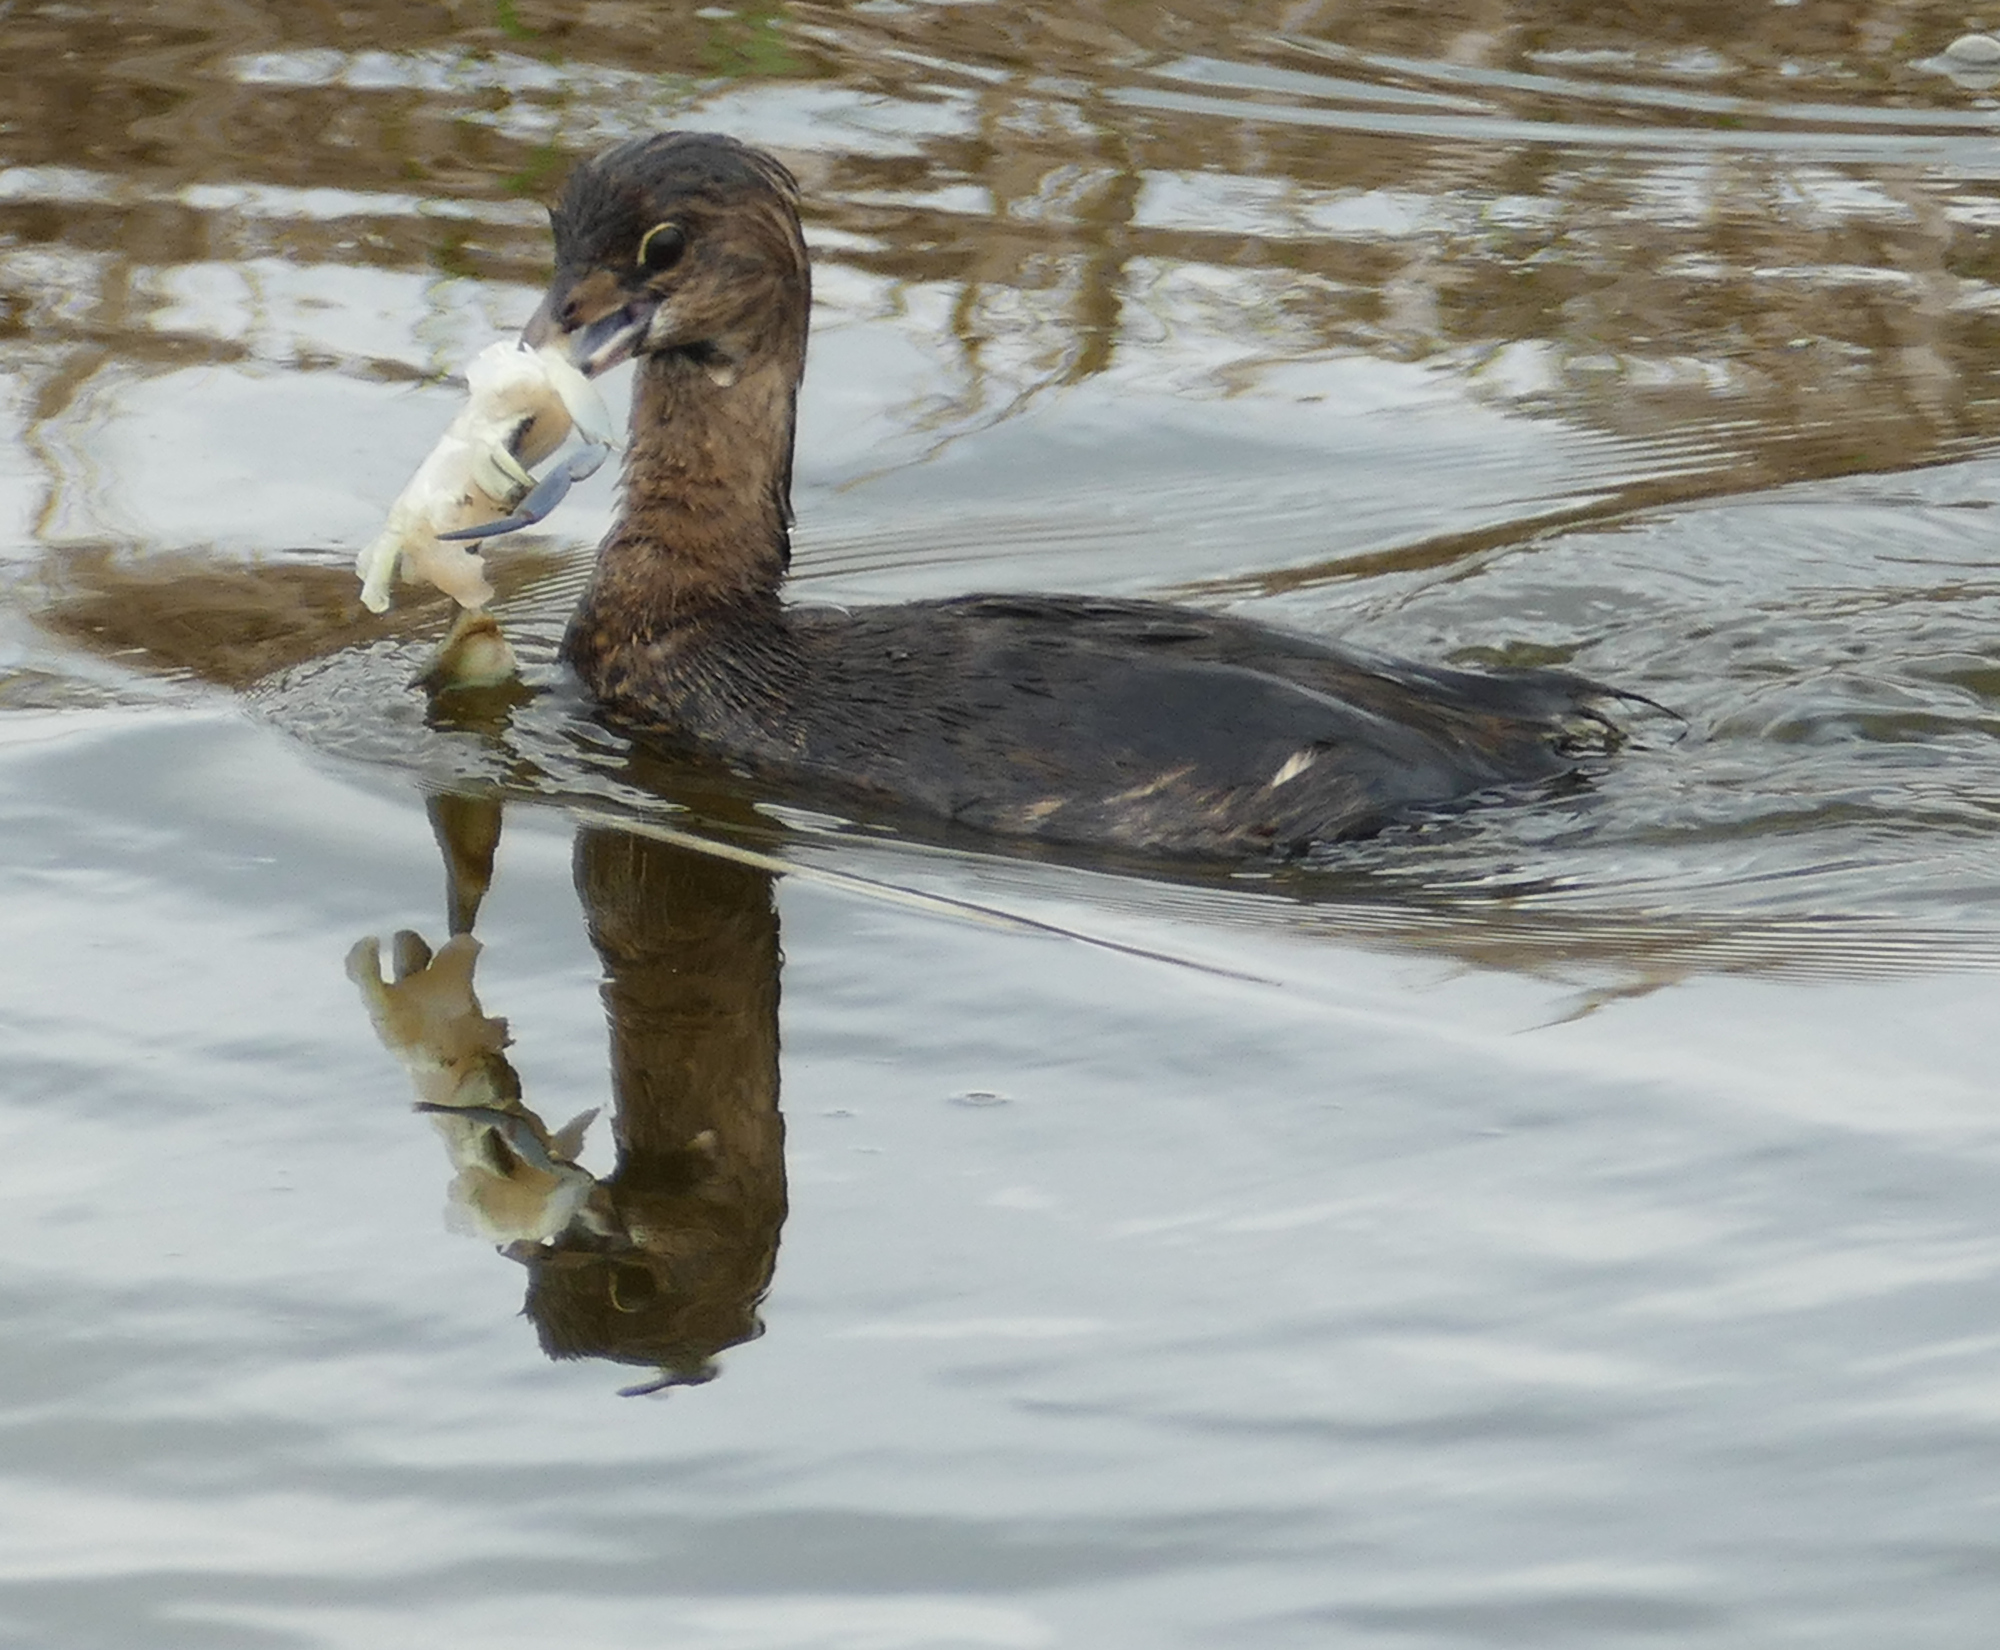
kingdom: Animalia
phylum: Arthropoda
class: Malacostraca
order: Decapoda
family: Portunidae
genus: Callinectes
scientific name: Callinectes sapidus
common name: Blue crab
